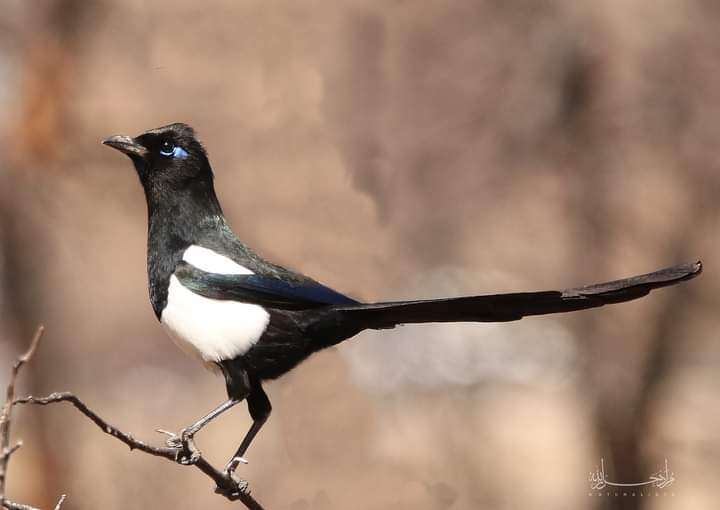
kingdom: Animalia
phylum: Chordata
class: Aves
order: Passeriformes
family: Corvidae
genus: Pica
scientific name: Pica mauritanica
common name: Maghreb magpie
